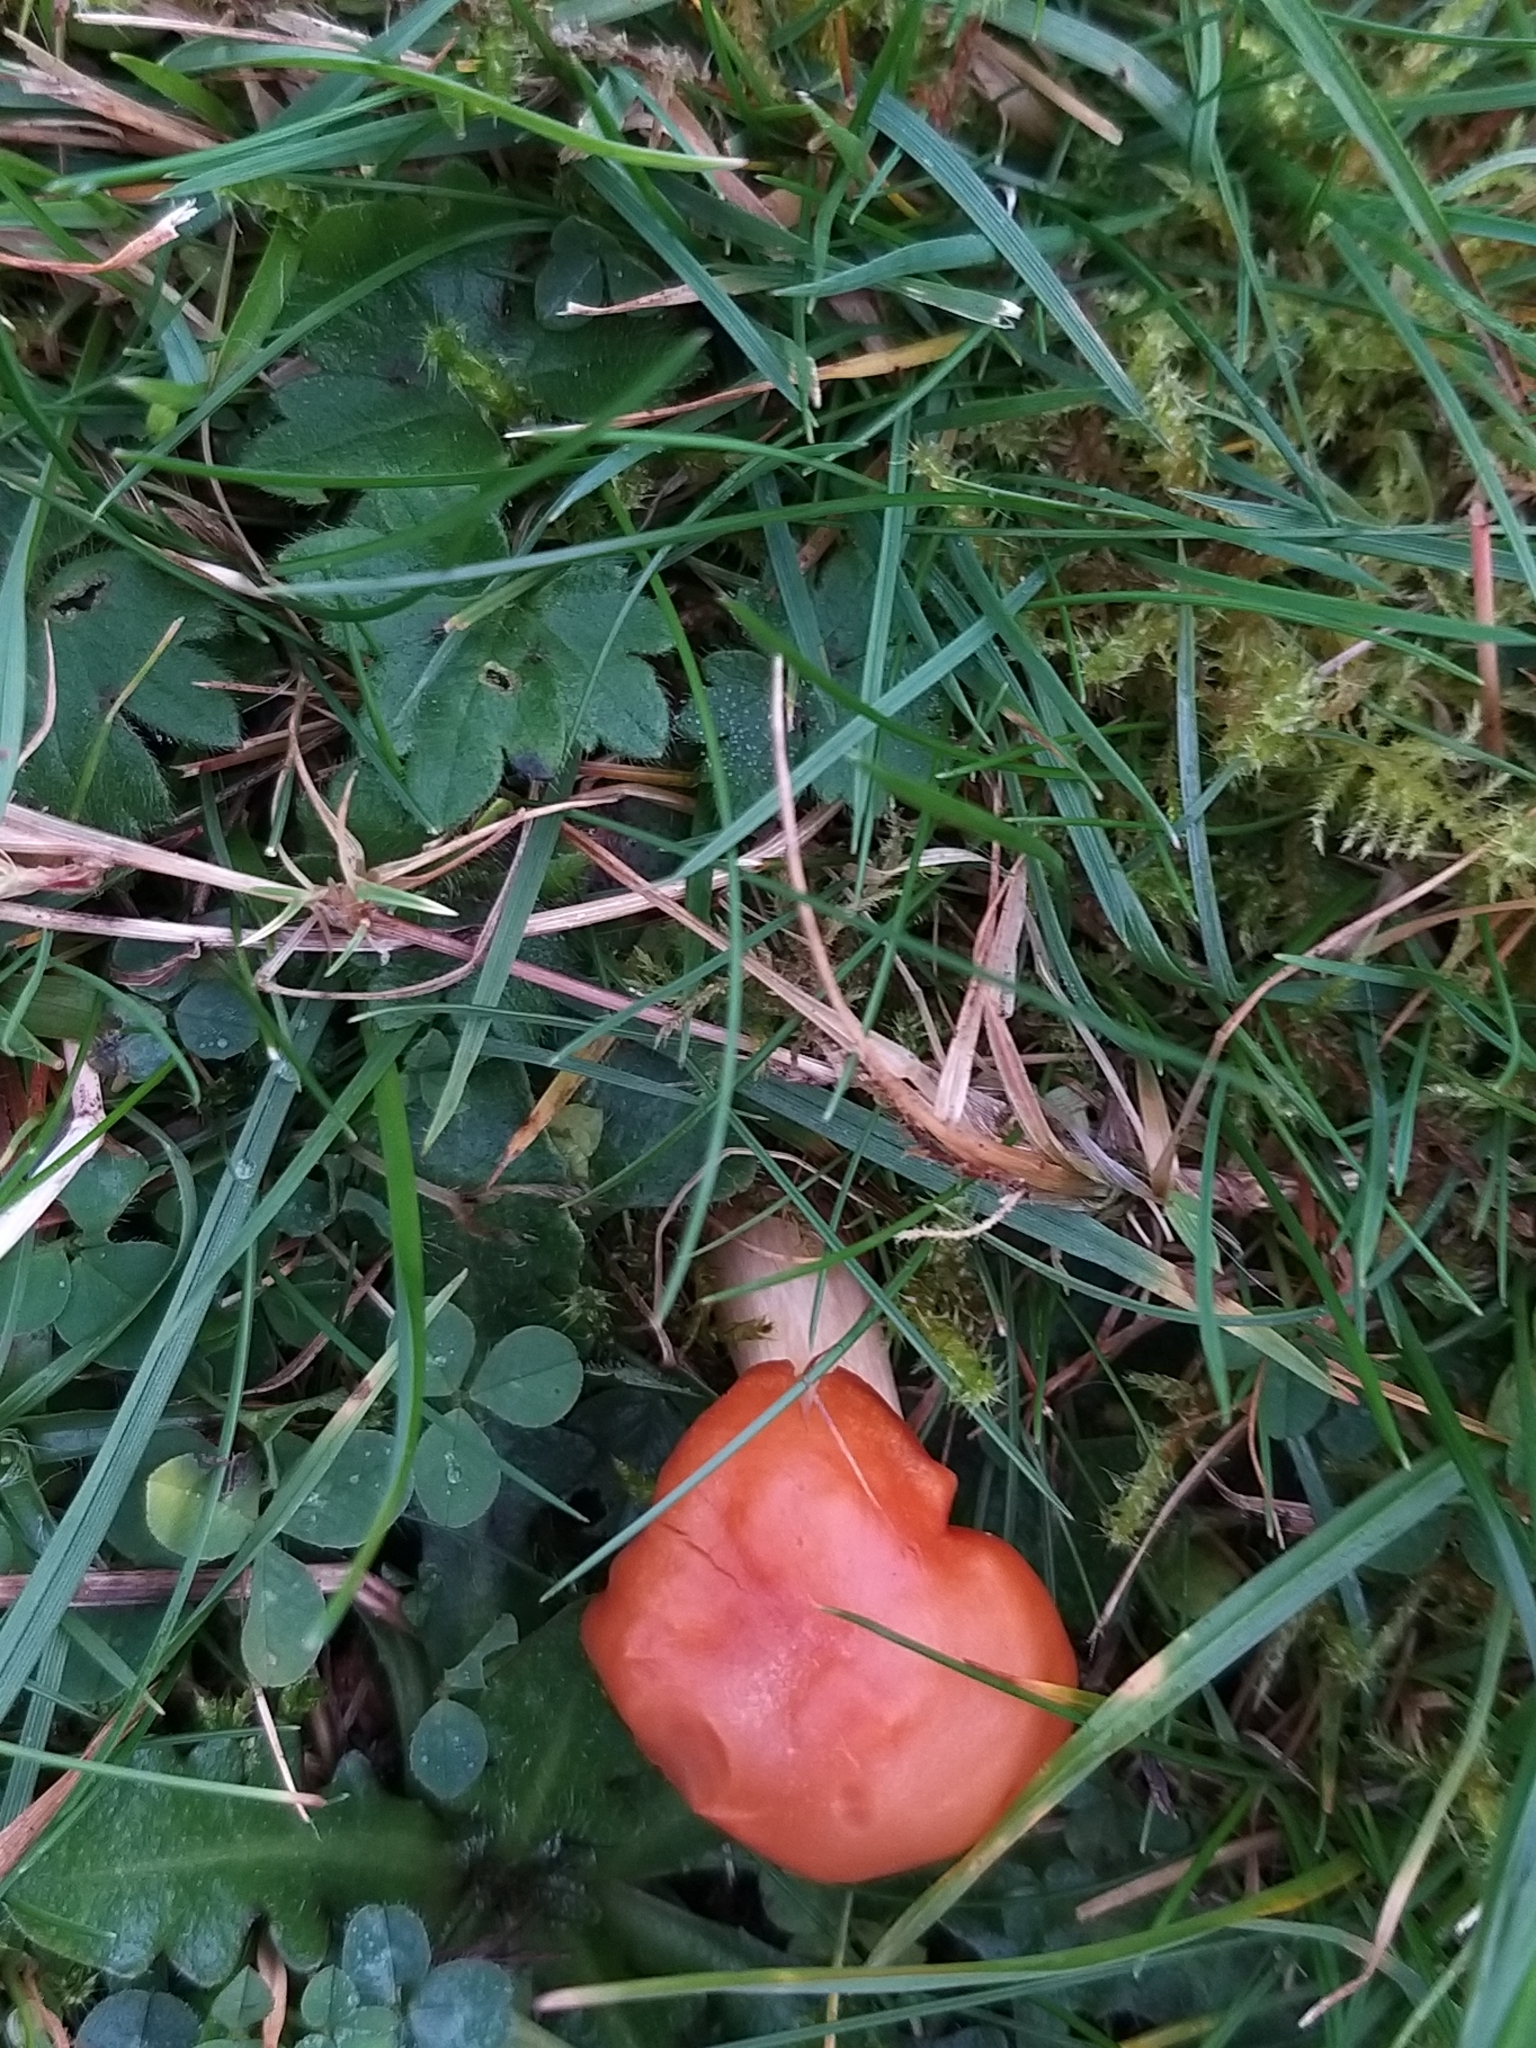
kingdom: Fungi
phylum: Basidiomycota
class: Agaricomycetes
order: Agaricales
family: Hygrophoraceae
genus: Cuphophyllus
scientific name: Cuphophyllus pratensis
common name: Meadow waxcap
